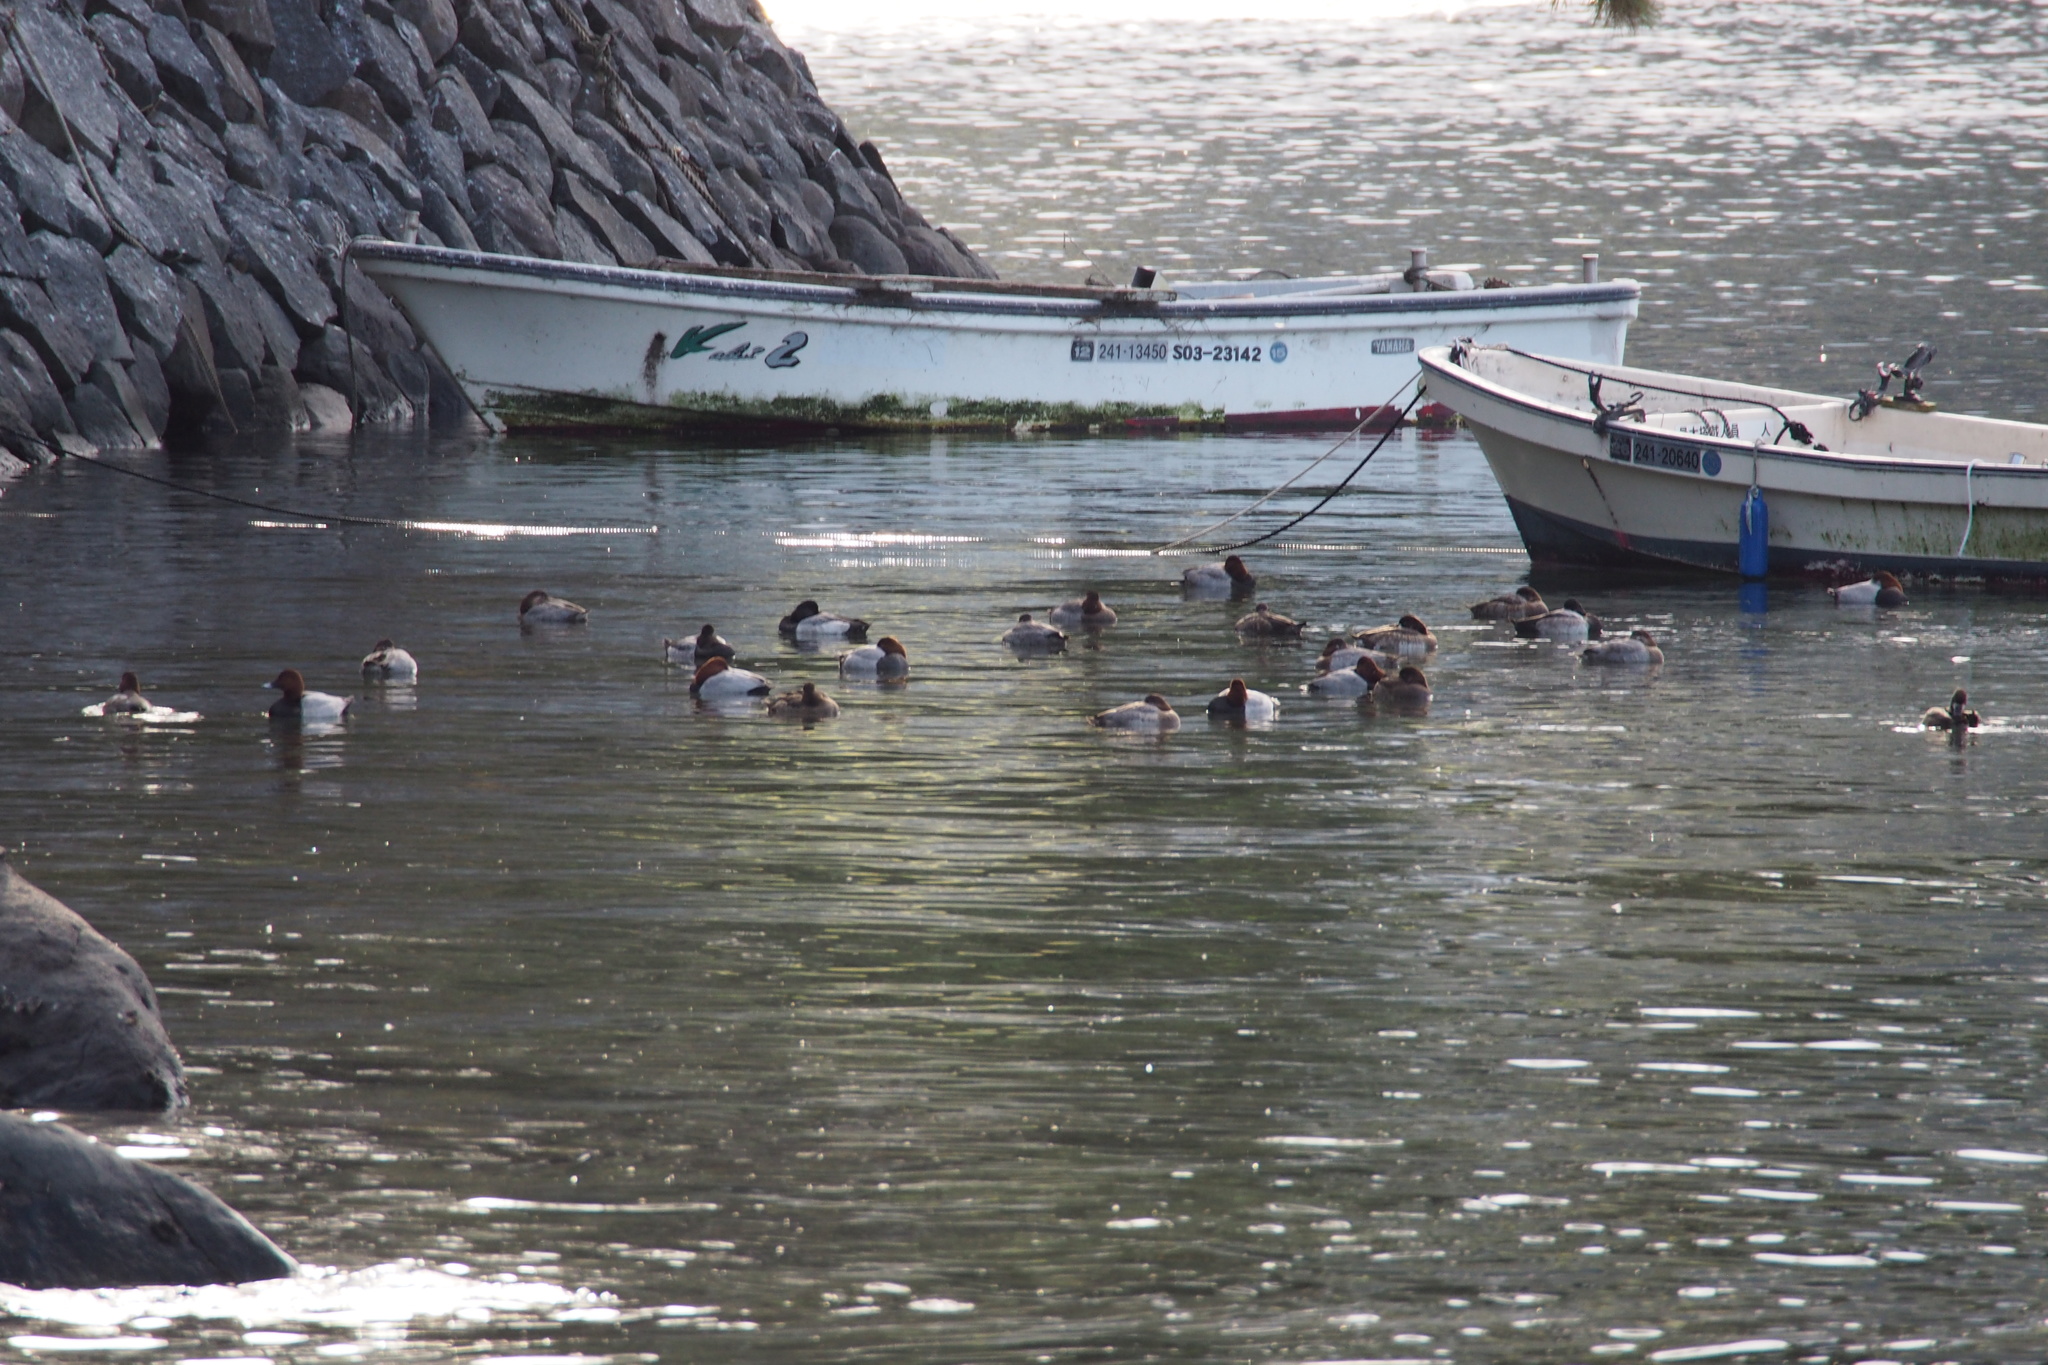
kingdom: Animalia
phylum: Chordata
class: Aves
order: Anseriformes
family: Anatidae
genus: Aythya
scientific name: Aythya ferina
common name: Common pochard
